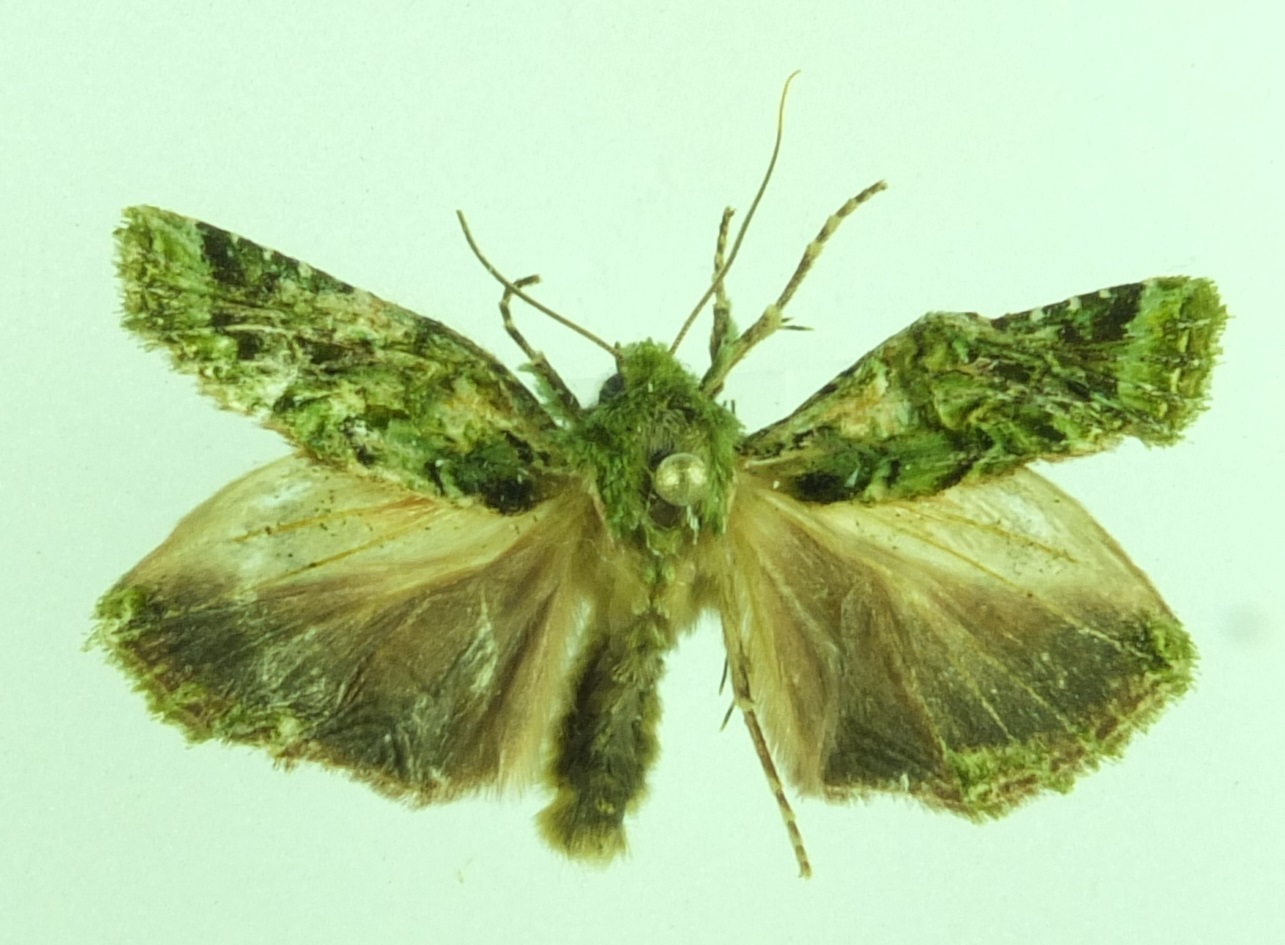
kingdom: Animalia
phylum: Arthropoda
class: Insecta
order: Lepidoptera
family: Noctuidae
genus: Feredayia
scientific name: Feredayia grammosa
